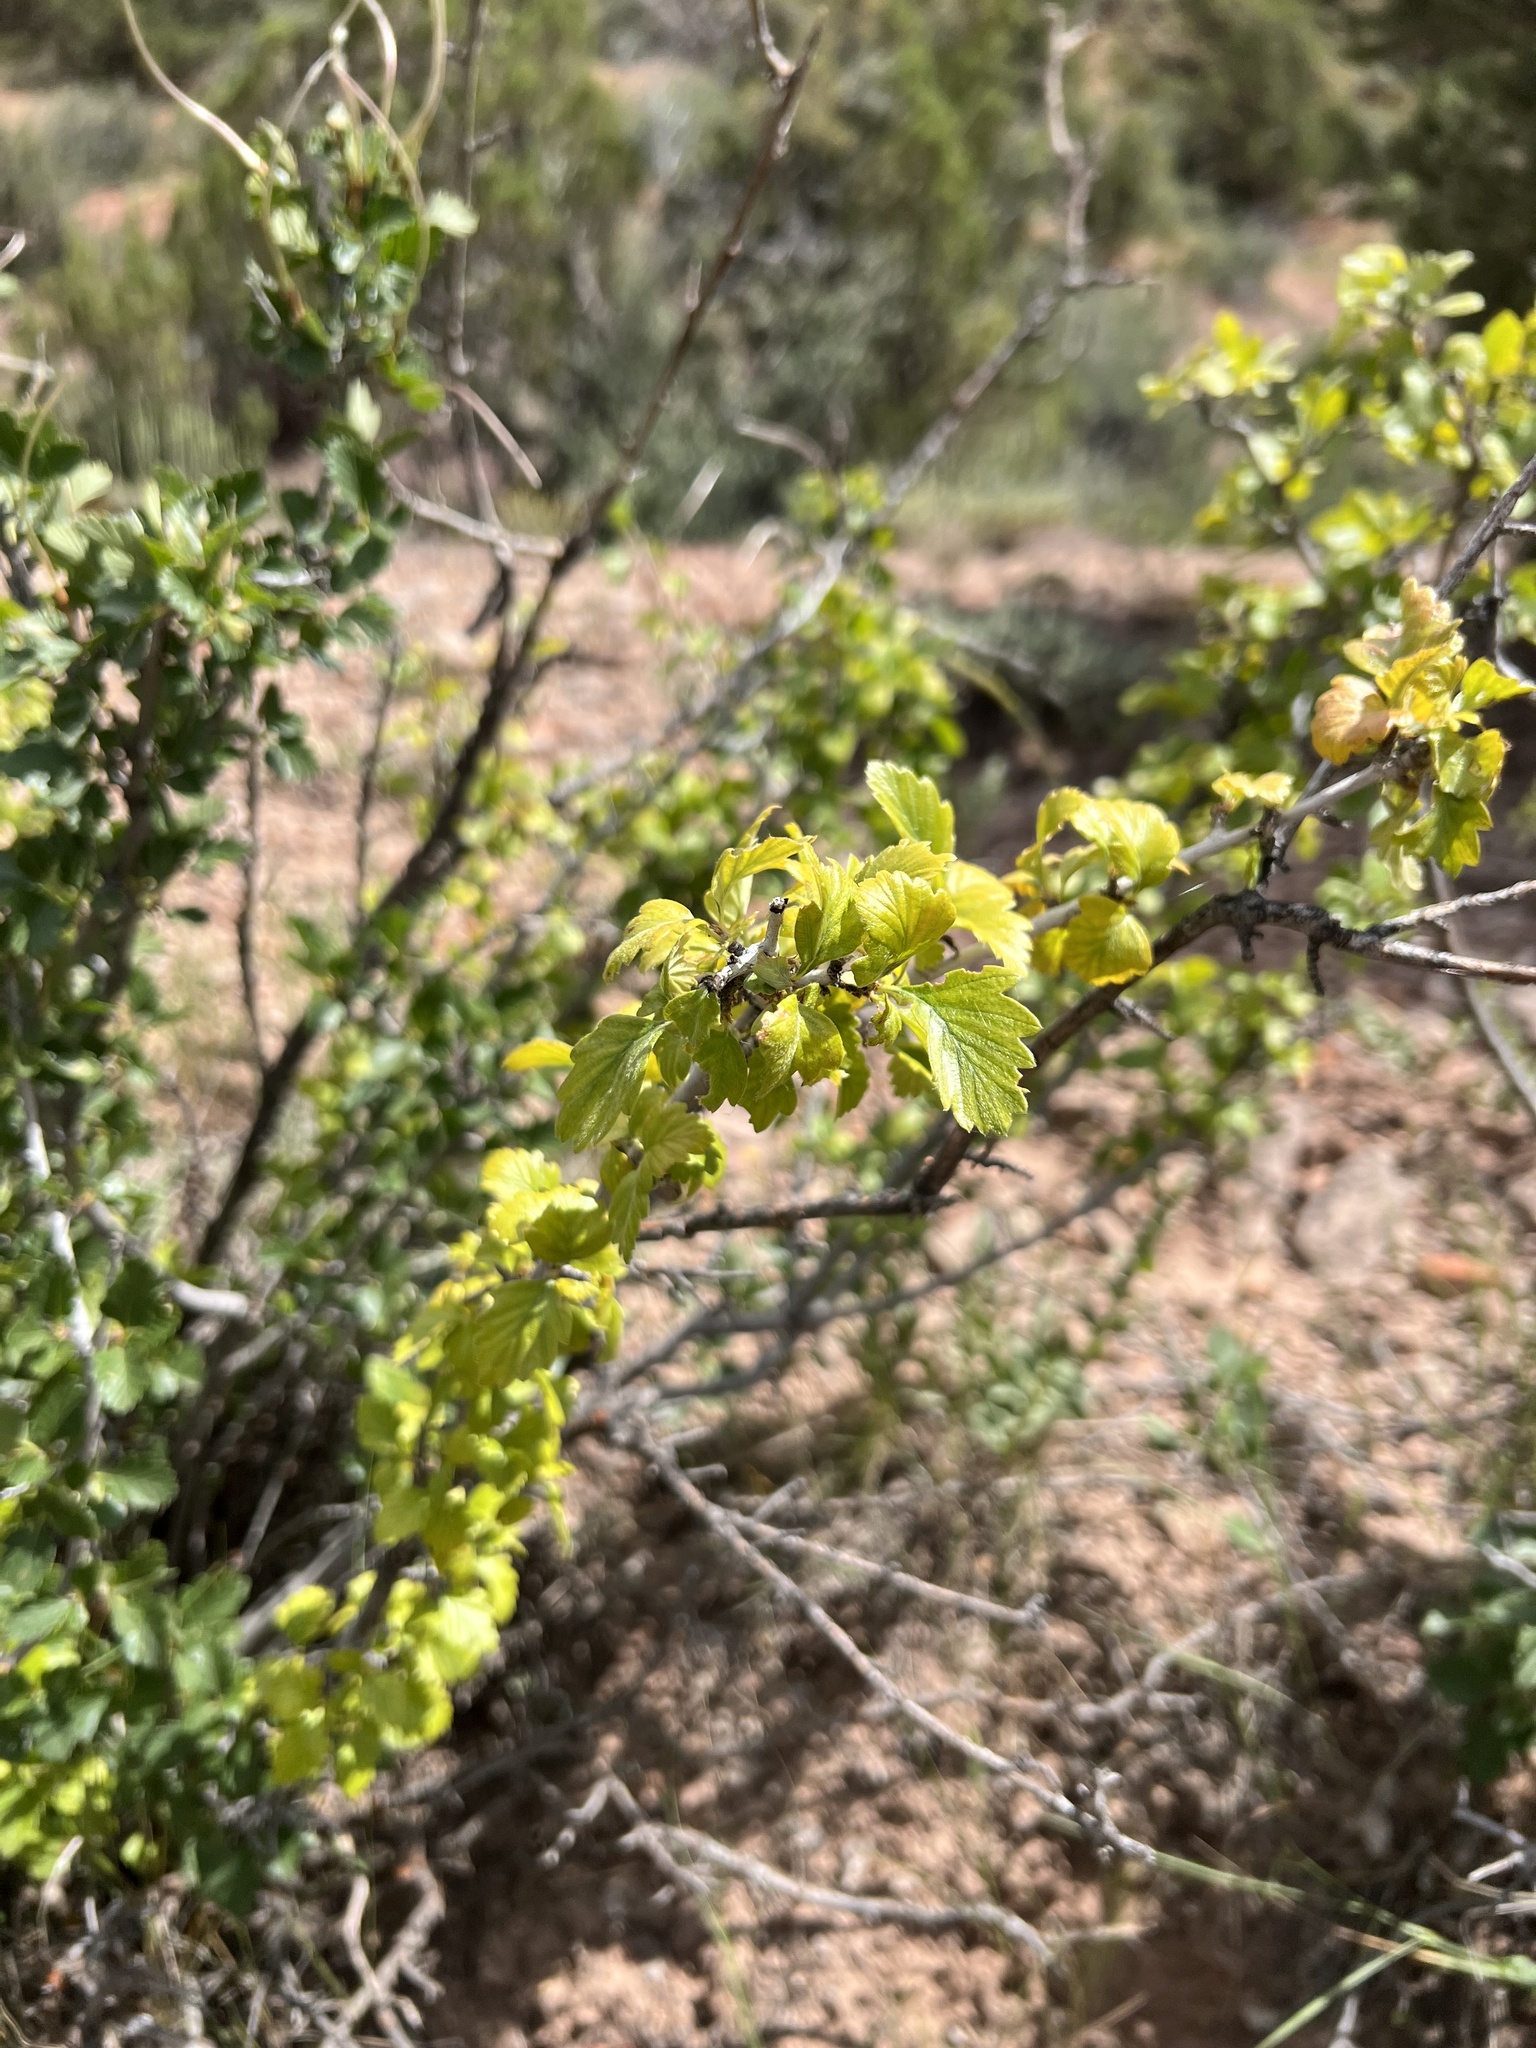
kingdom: Plantae
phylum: Tracheophyta
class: Magnoliopsida
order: Rosales
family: Rosaceae
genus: Cercocarpus
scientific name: Cercocarpus montanus
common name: Alder-leaf cercocarpus
